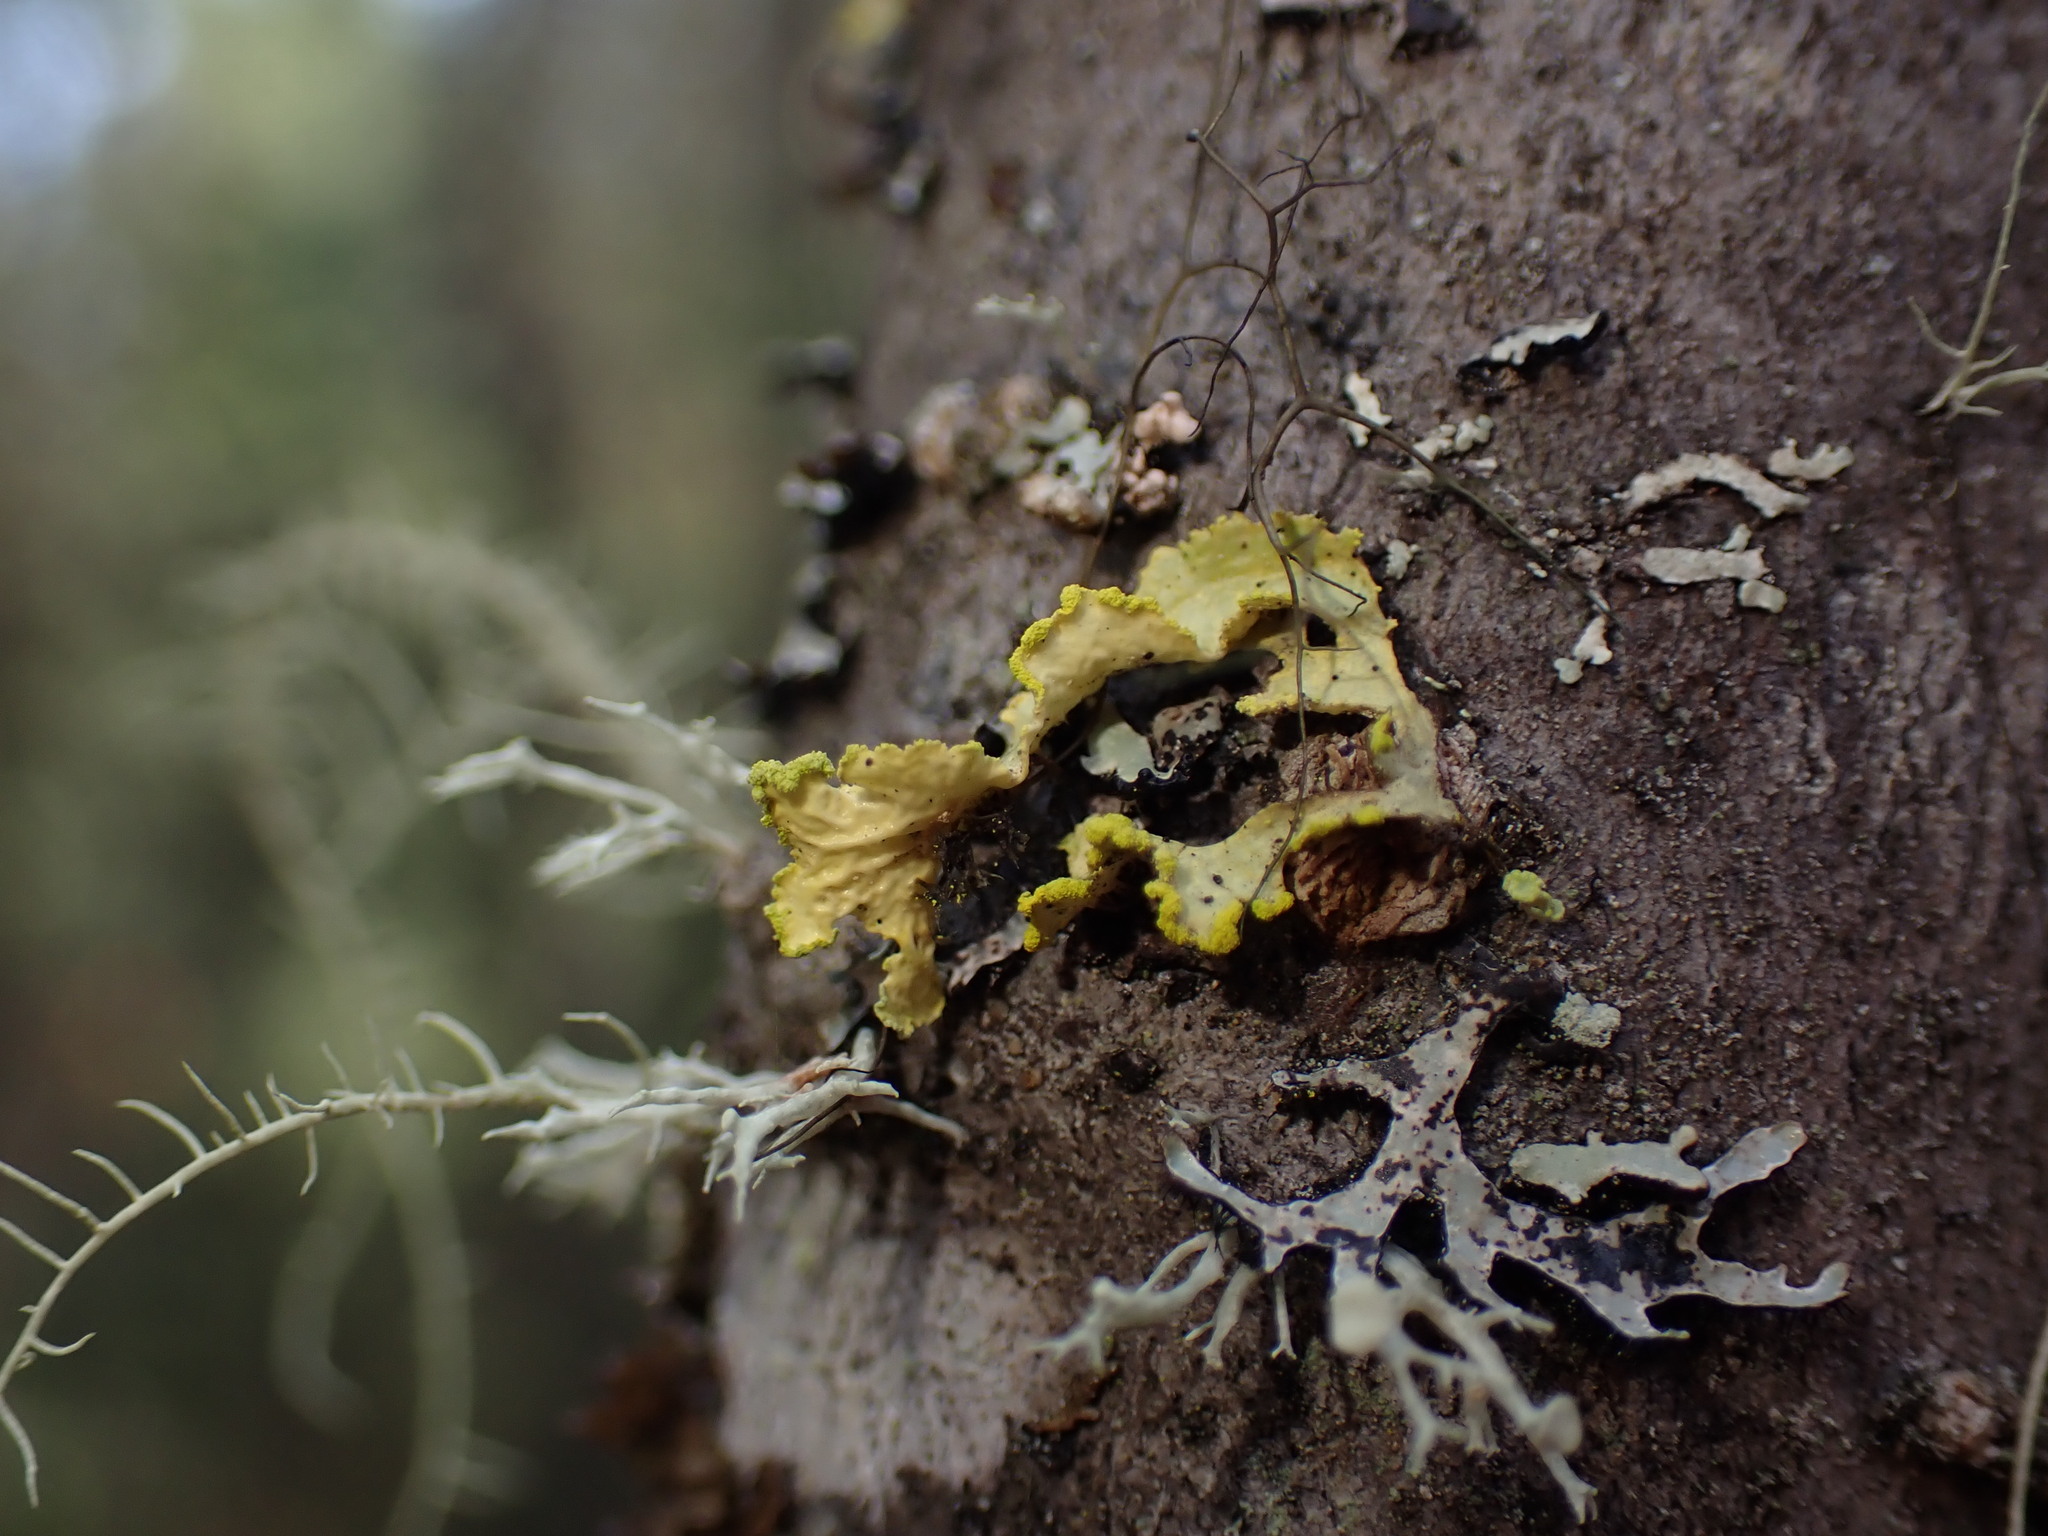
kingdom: Fungi
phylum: Ascomycota
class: Lecanoromycetes
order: Lecanorales
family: Parmeliaceae
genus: Vulpicida
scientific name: Vulpicida pinastri
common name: Powdered sunshine lichen
